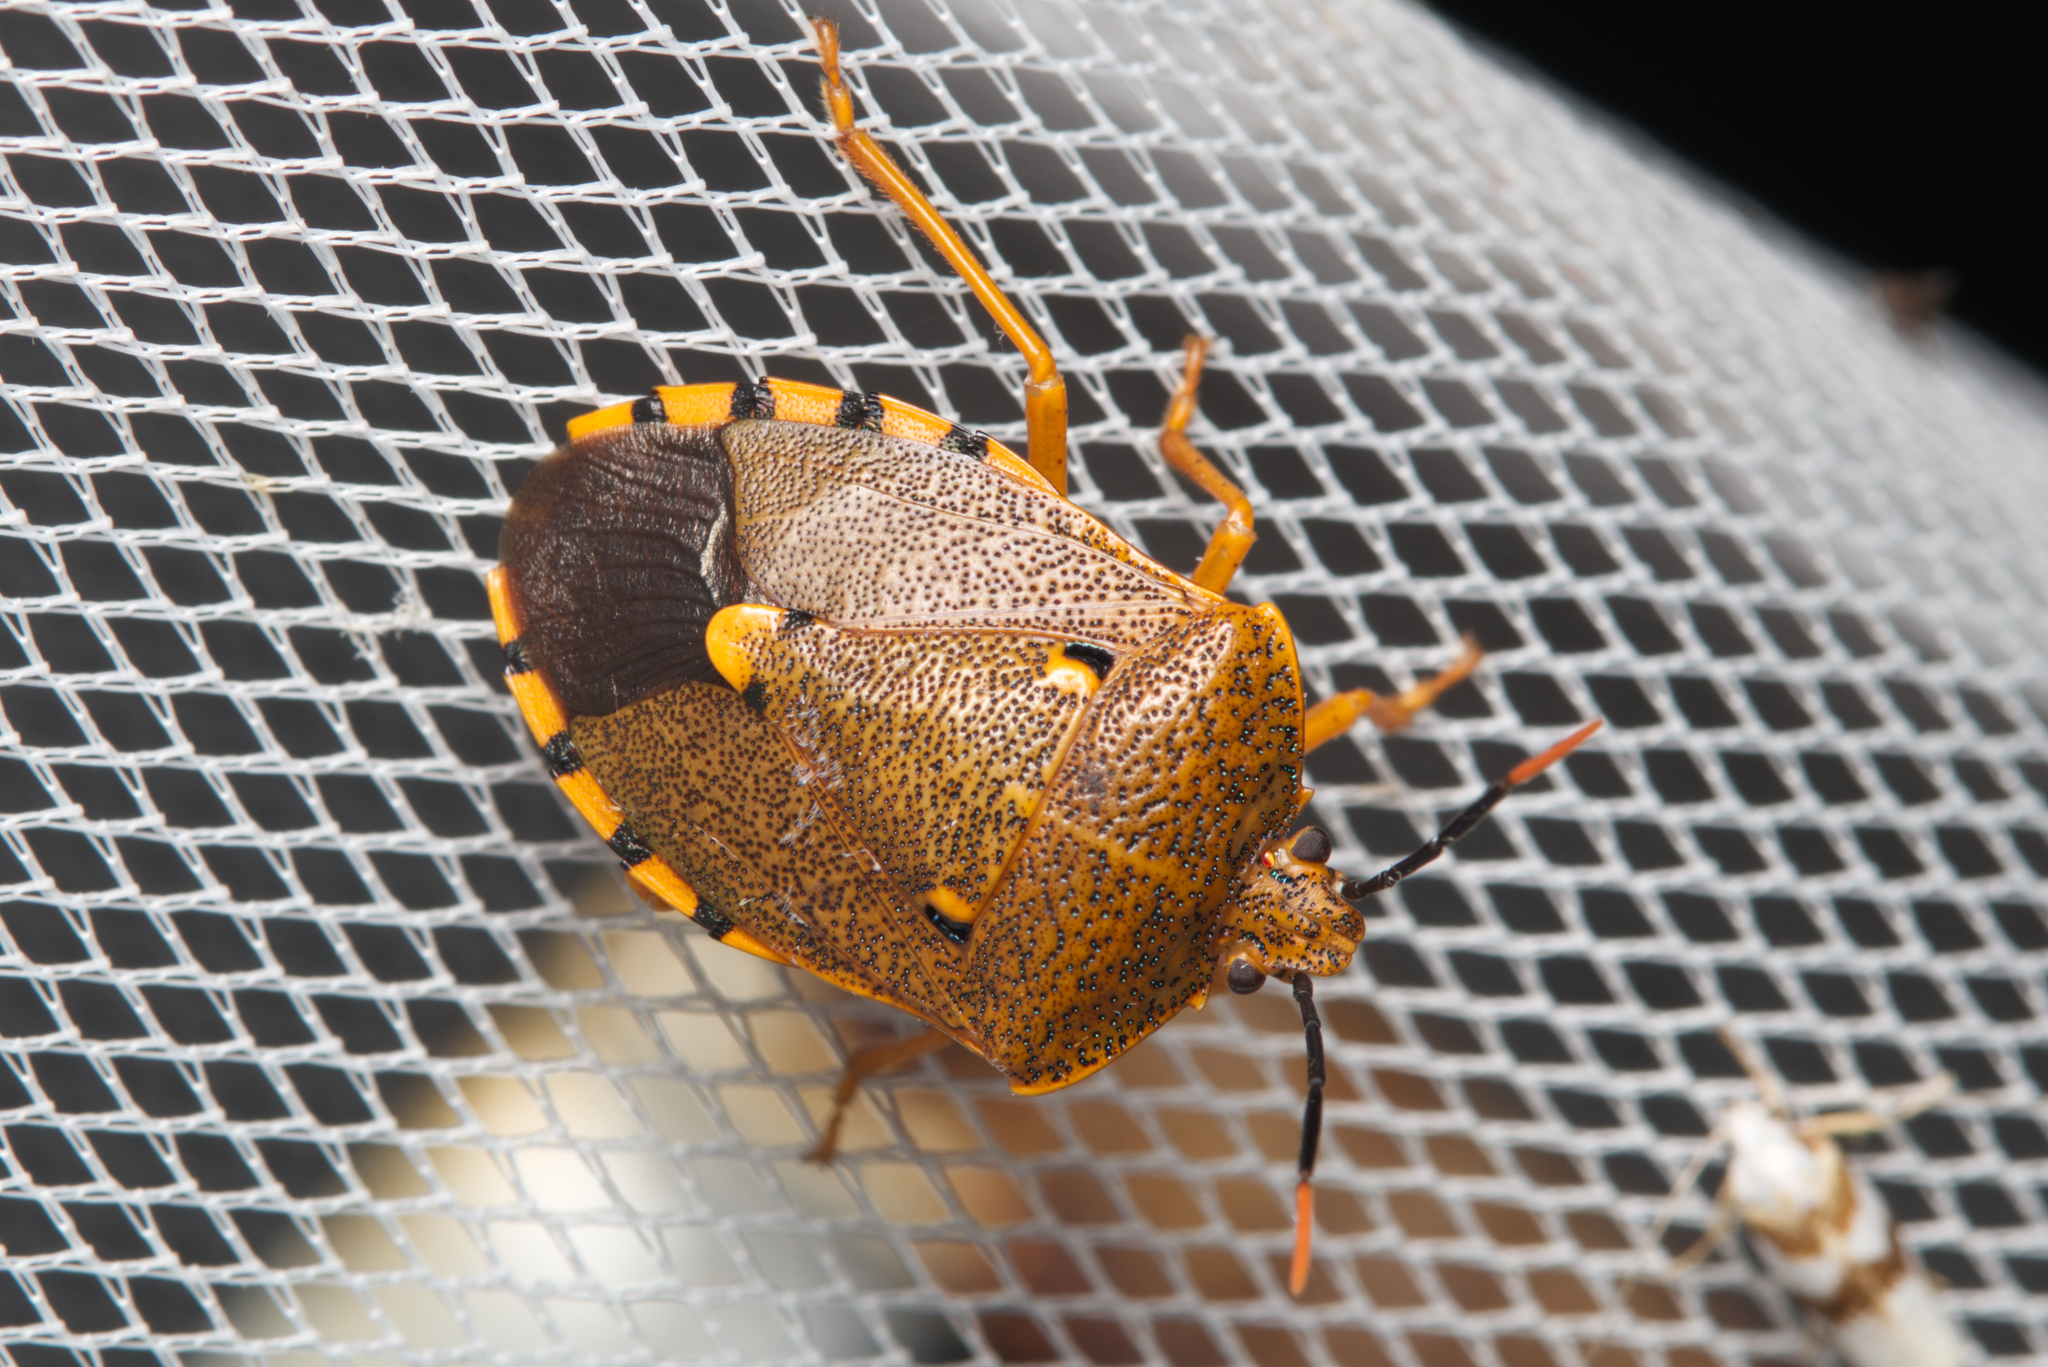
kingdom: Animalia
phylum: Arthropoda
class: Insecta
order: Hemiptera
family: Pentatomidae
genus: Anaxarchus
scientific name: Anaxarchus reyi
